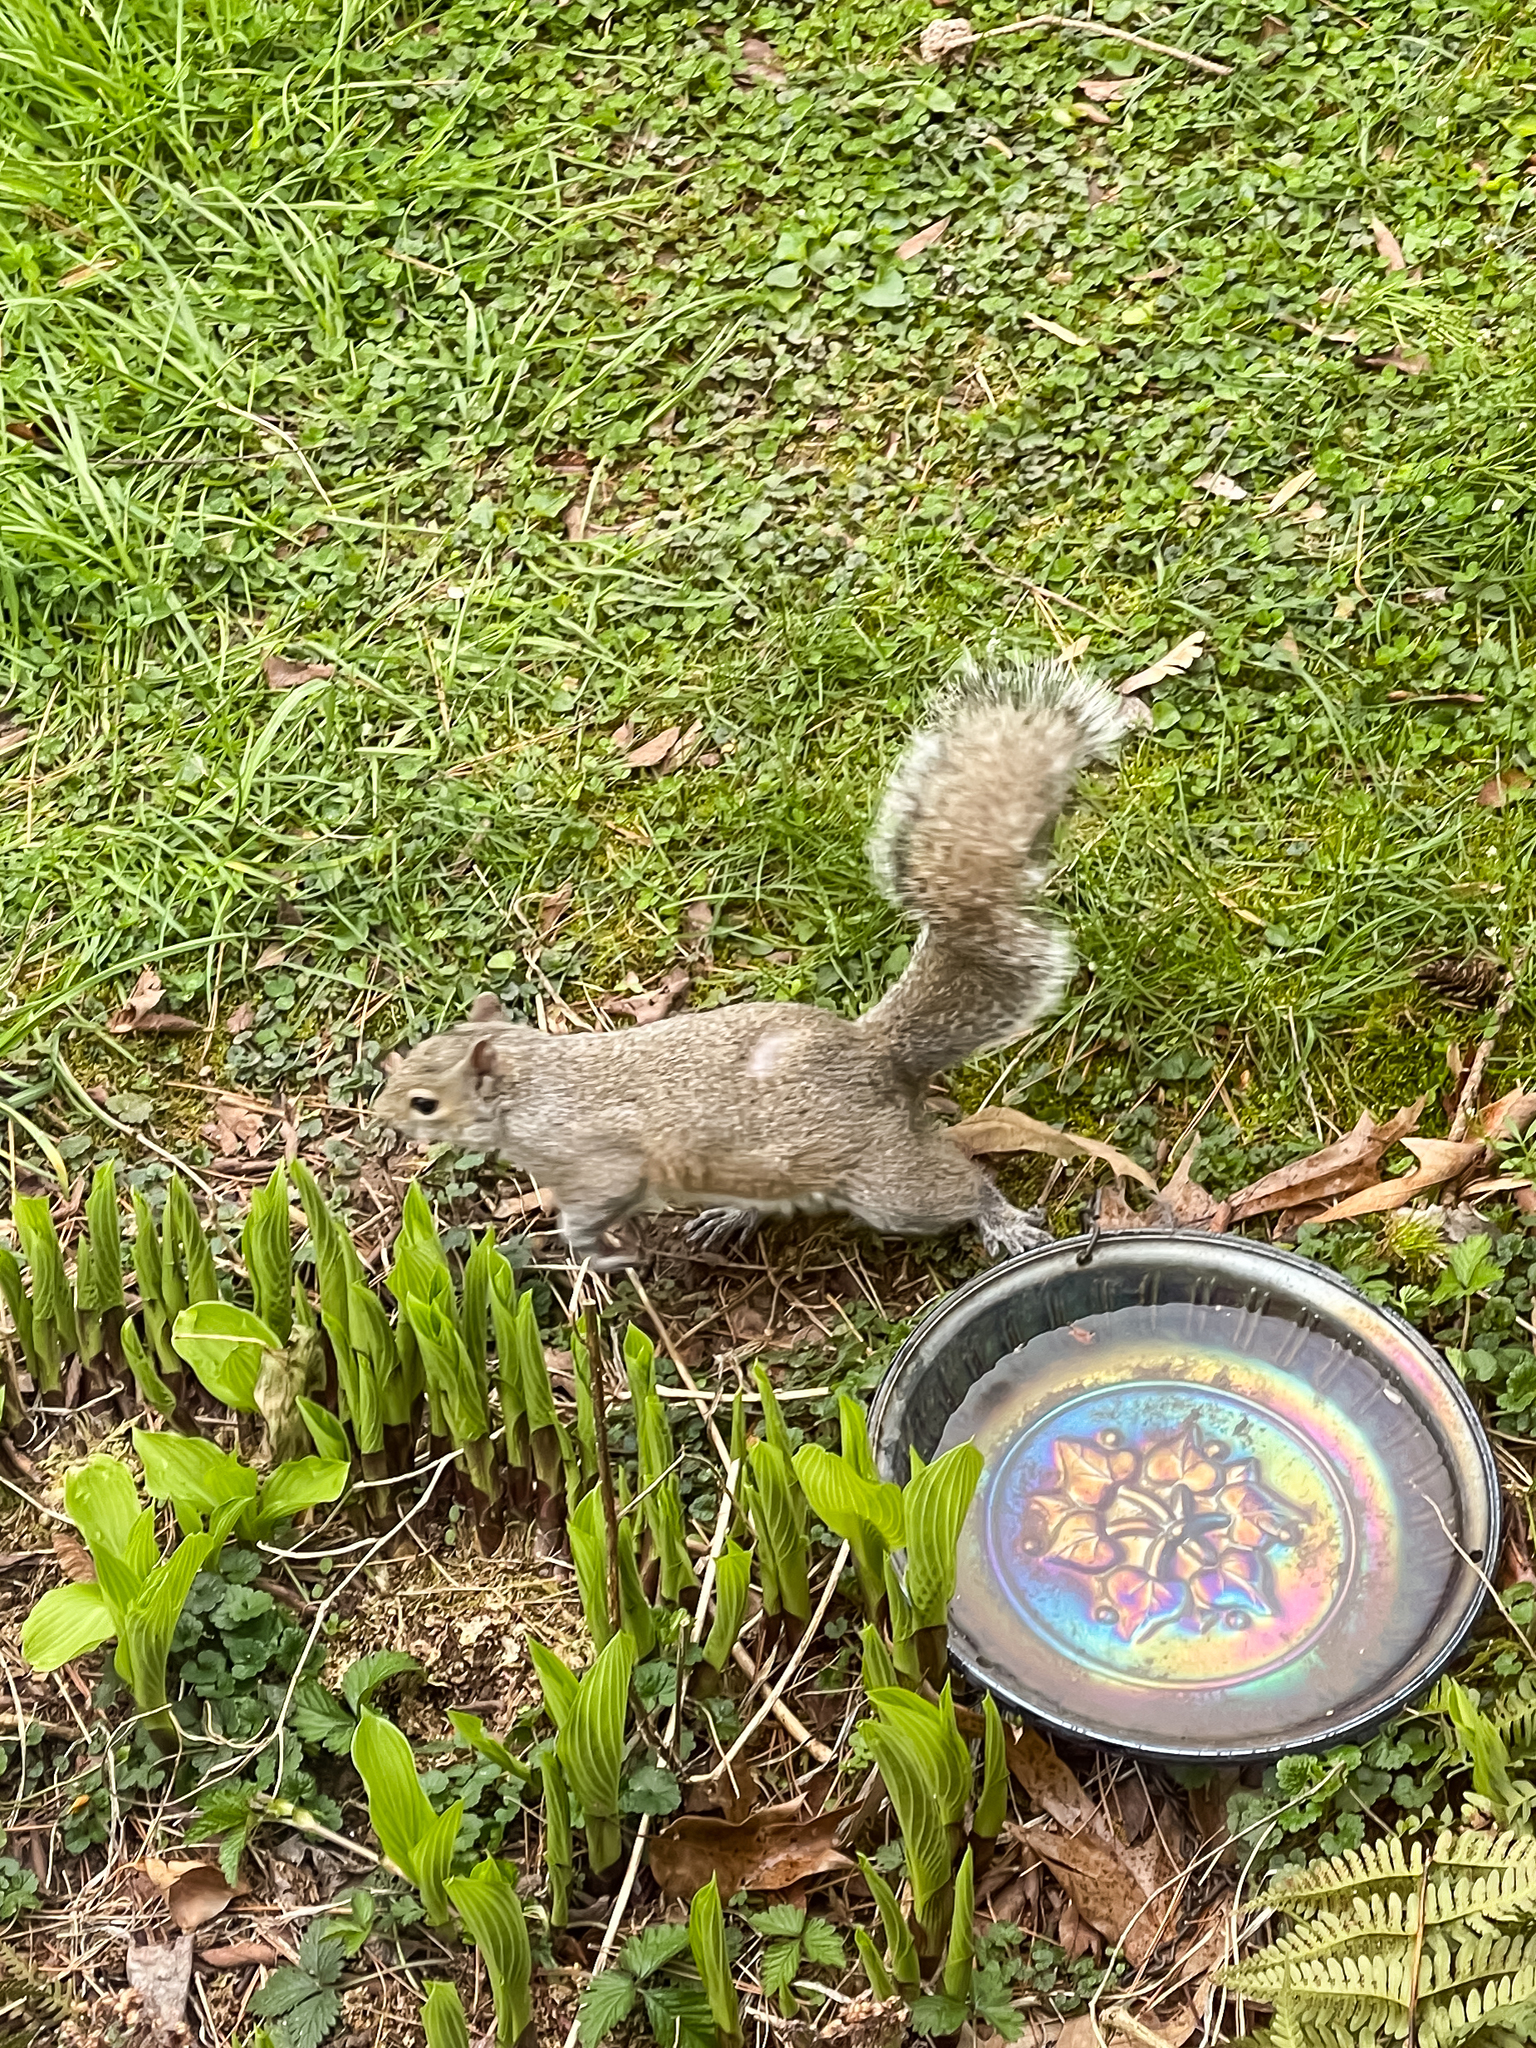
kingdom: Animalia
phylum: Chordata
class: Mammalia
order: Rodentia
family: Sciuridae
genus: Sciurus
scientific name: Sciurus carolinensis
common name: Eastern gray squirrel
